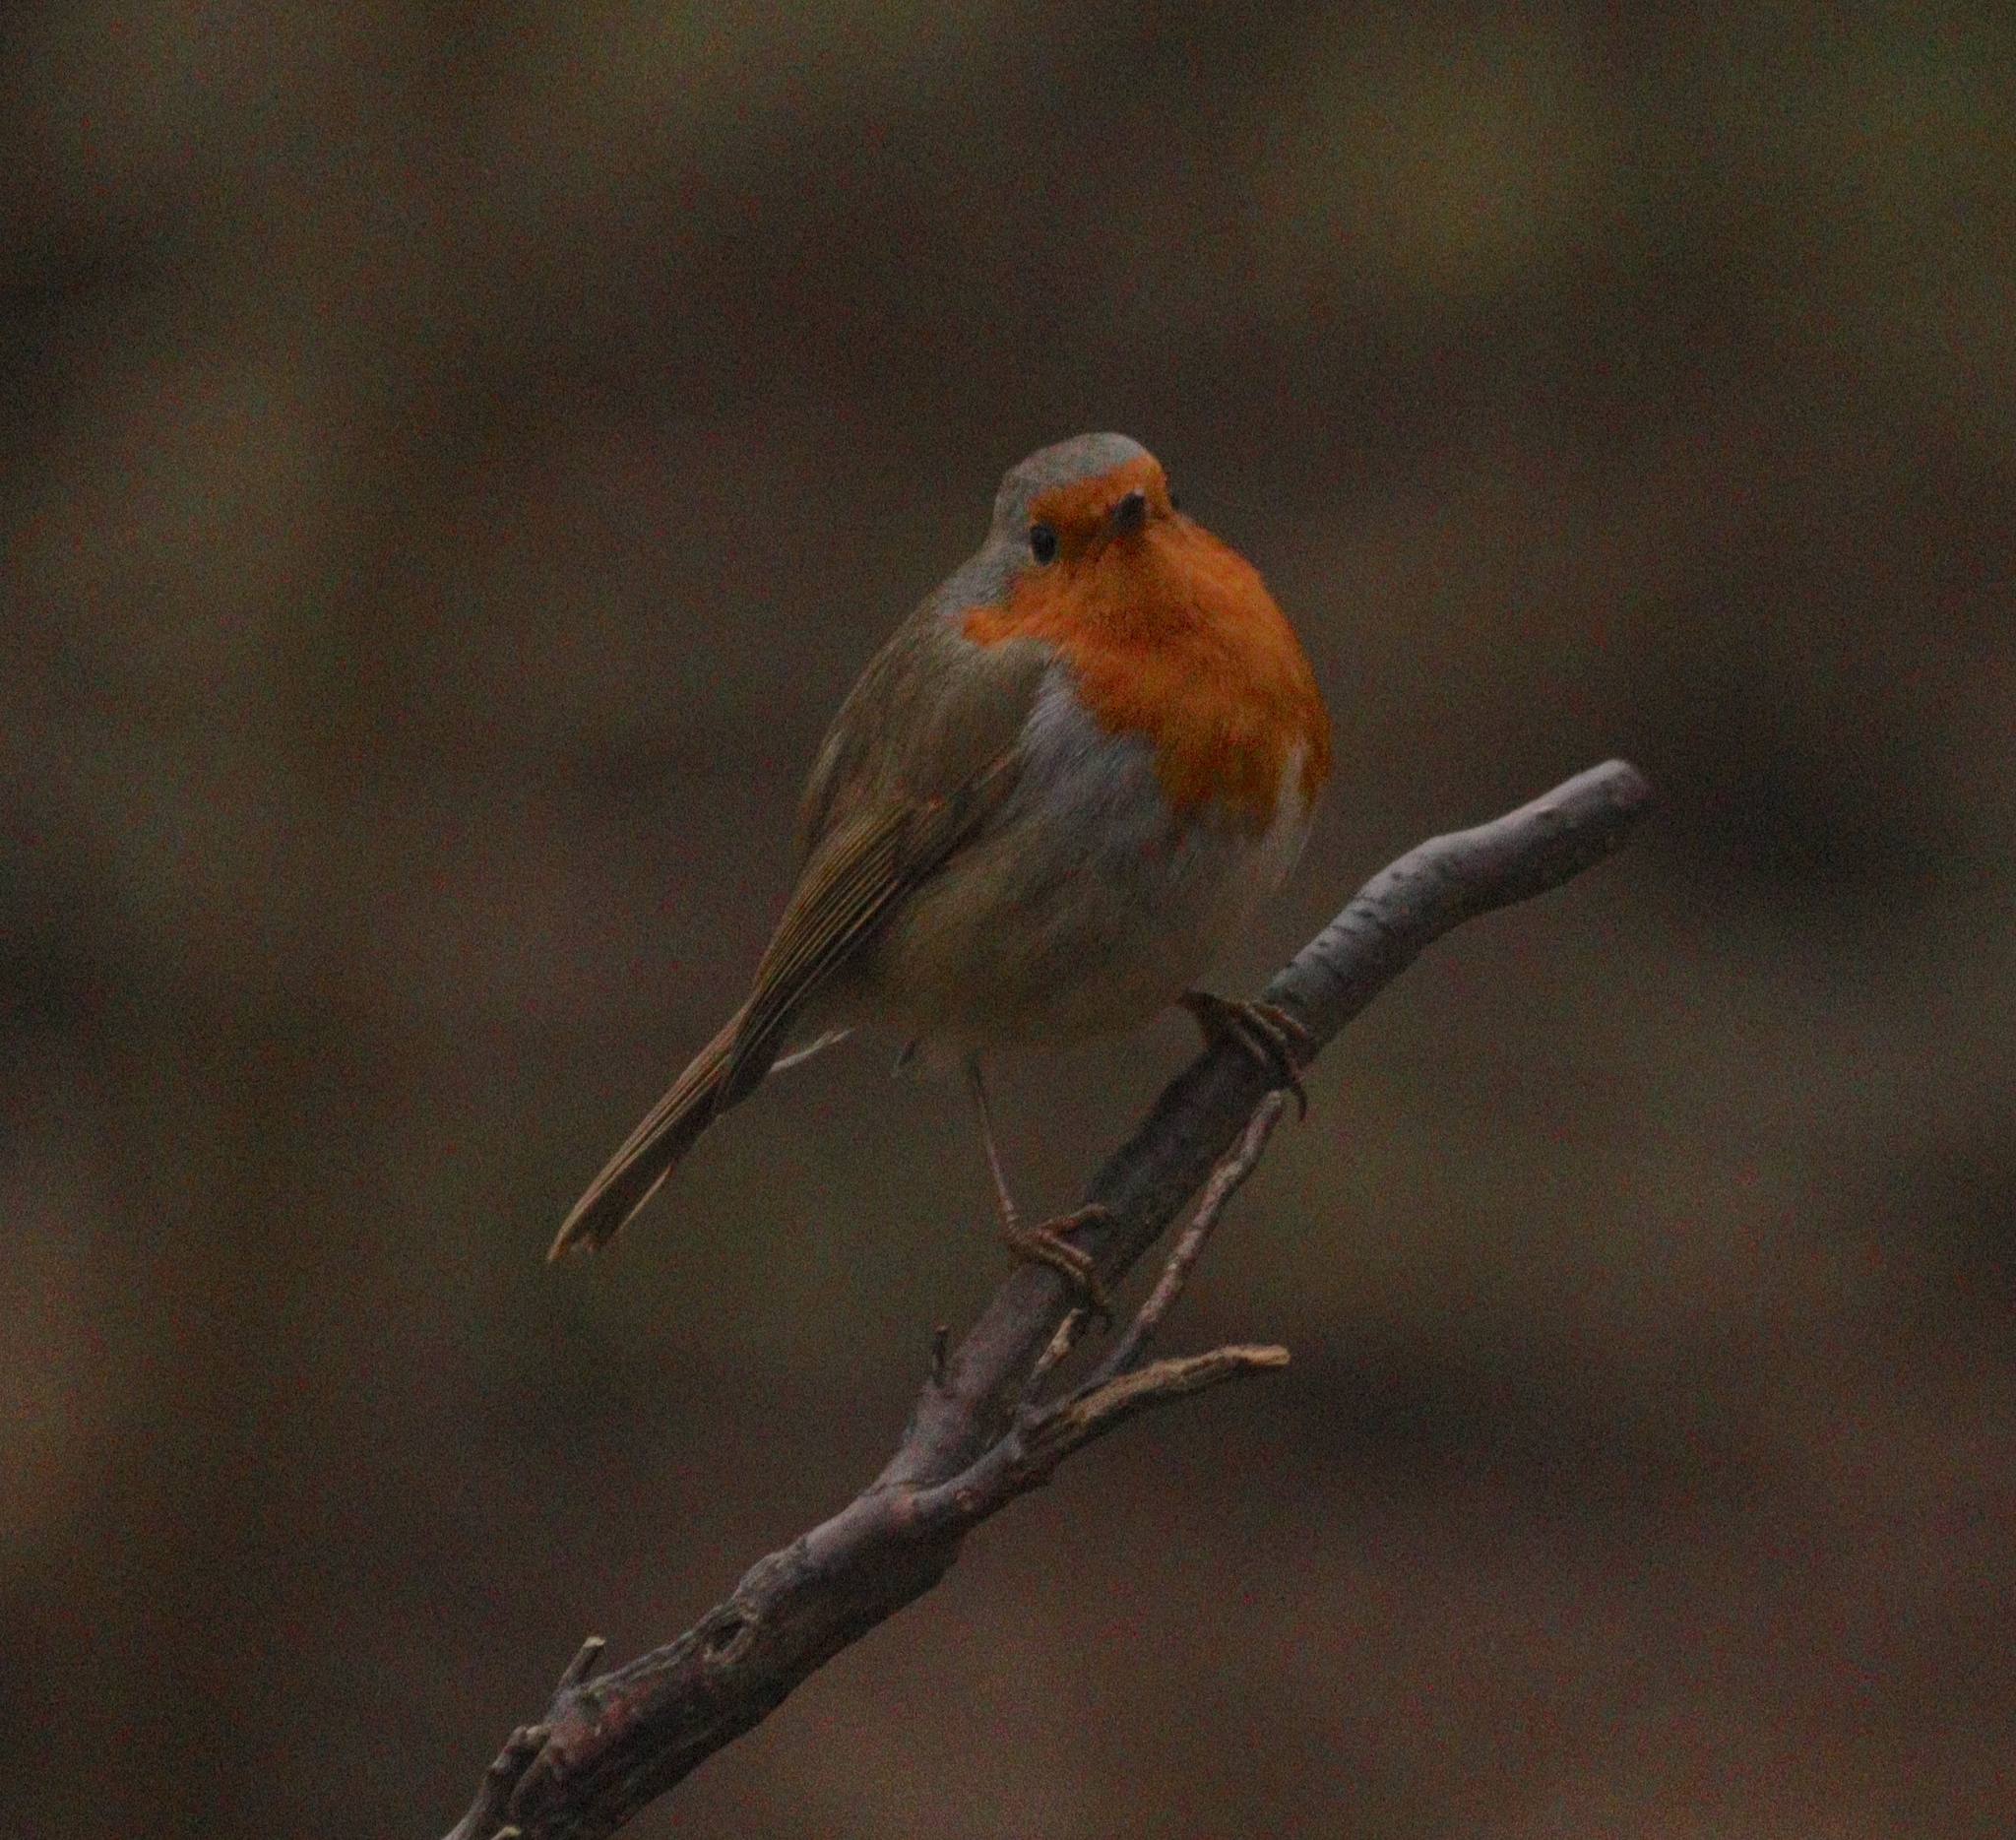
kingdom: Animalia
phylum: Chordata
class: Aves
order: Passeriformes
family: Muscicapidae
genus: Erithacus
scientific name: Erithacus rubecula
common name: European robin
